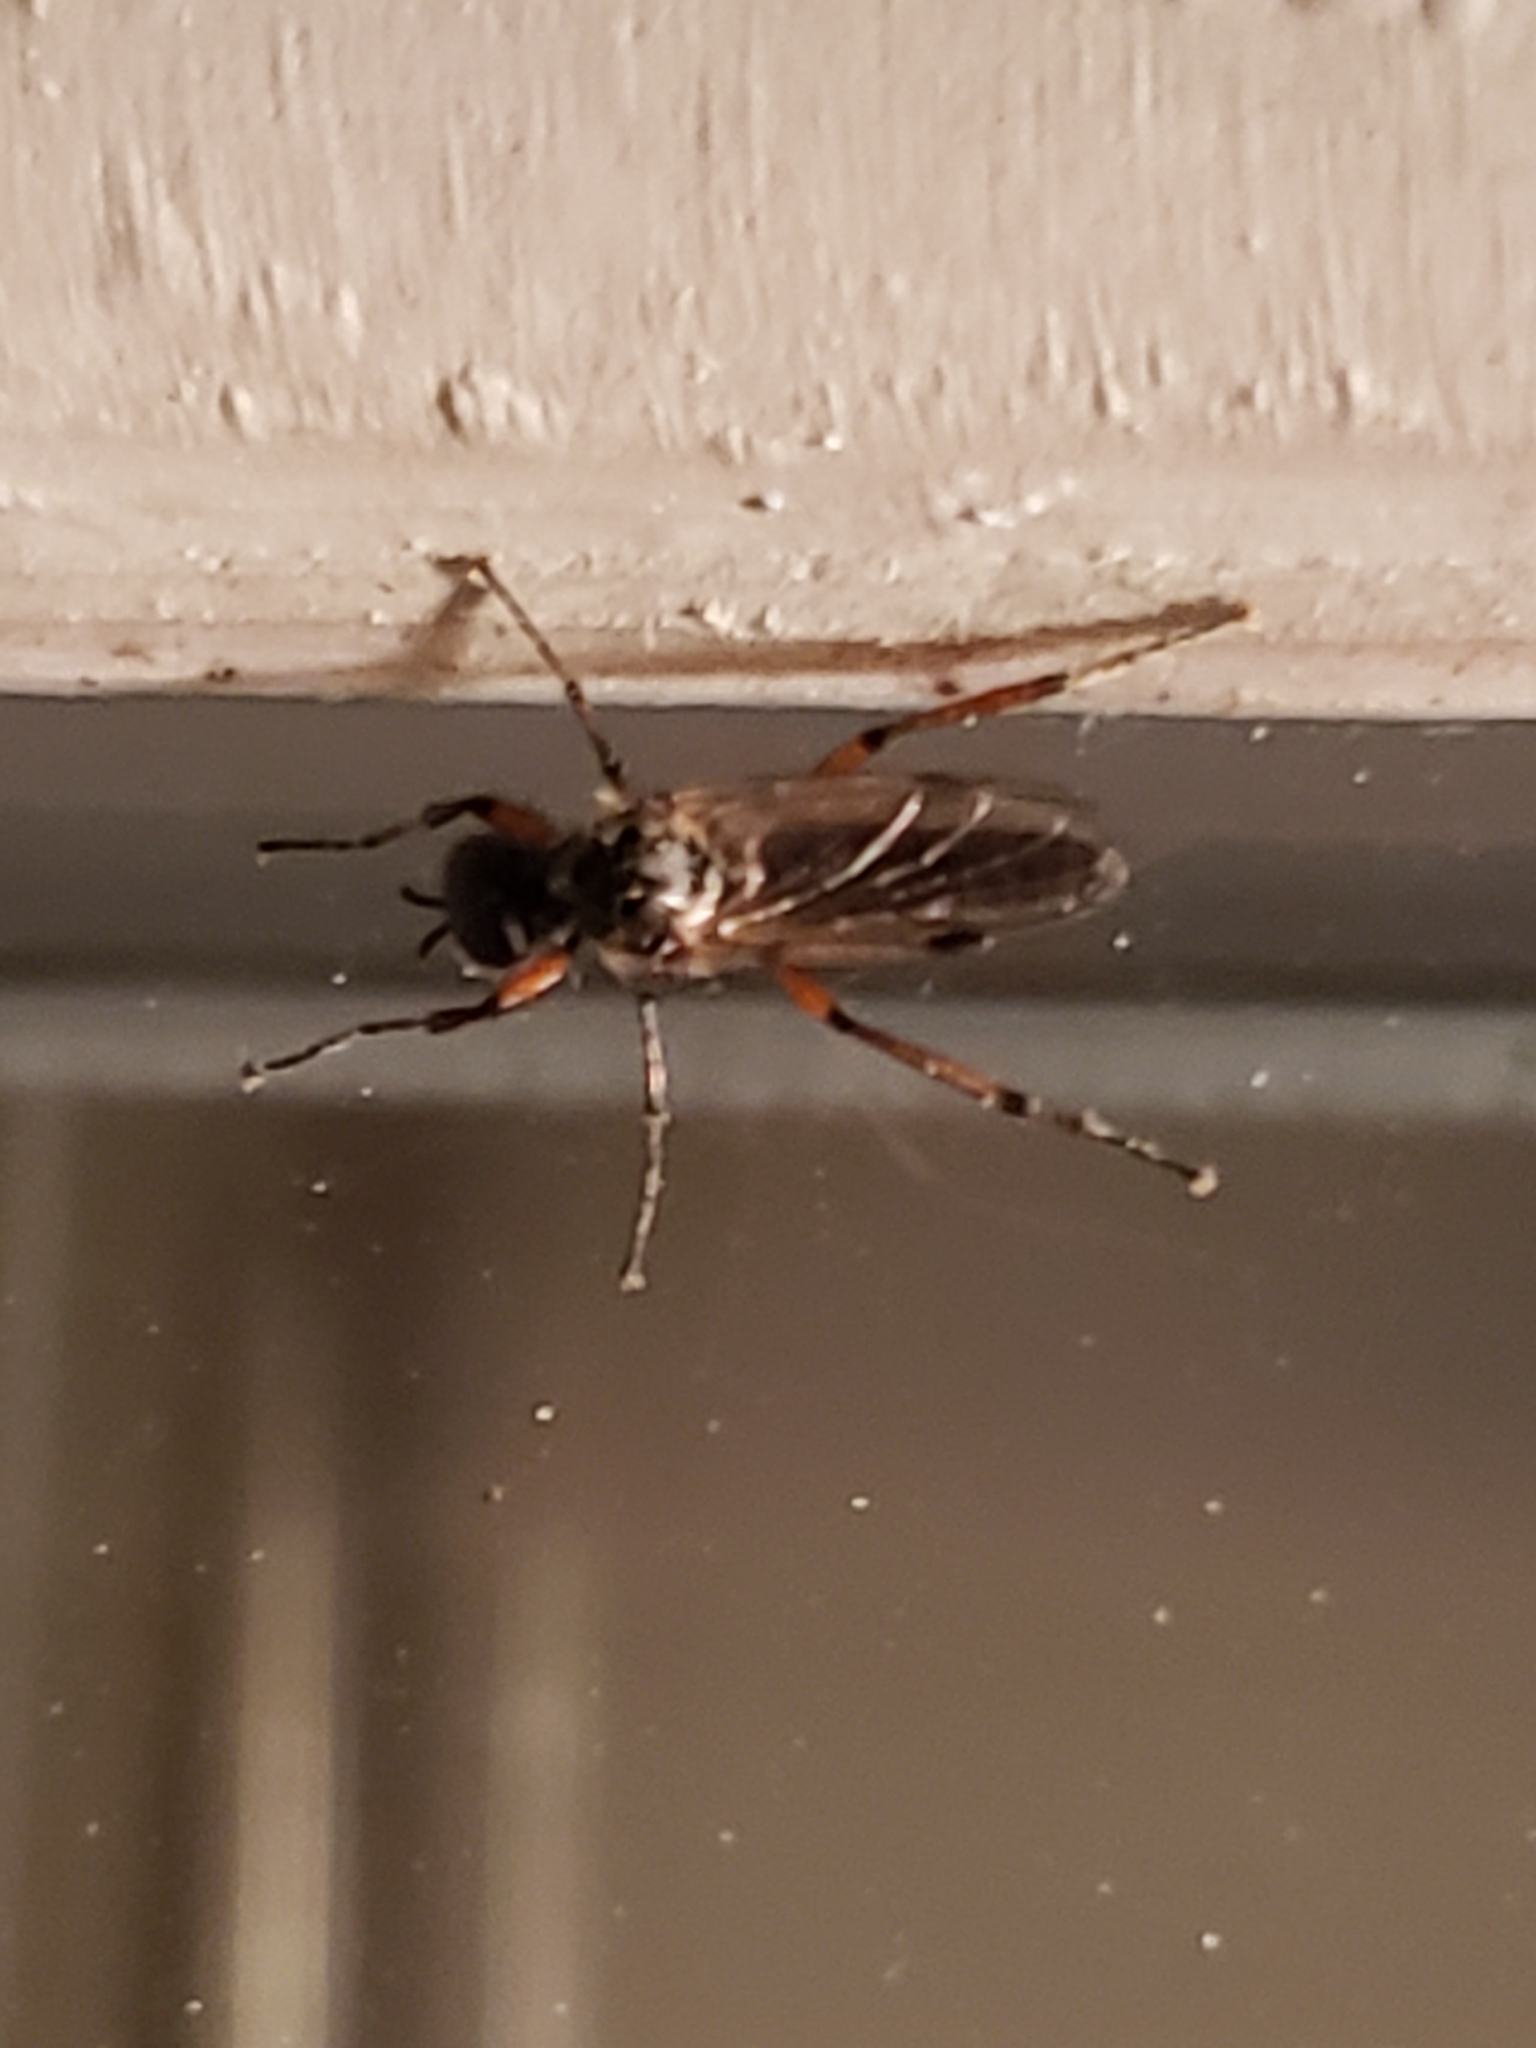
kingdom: Animalia
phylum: Arthropoda
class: Insecta
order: Diptera
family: Bibionidae
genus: Bibio
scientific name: Bibio
